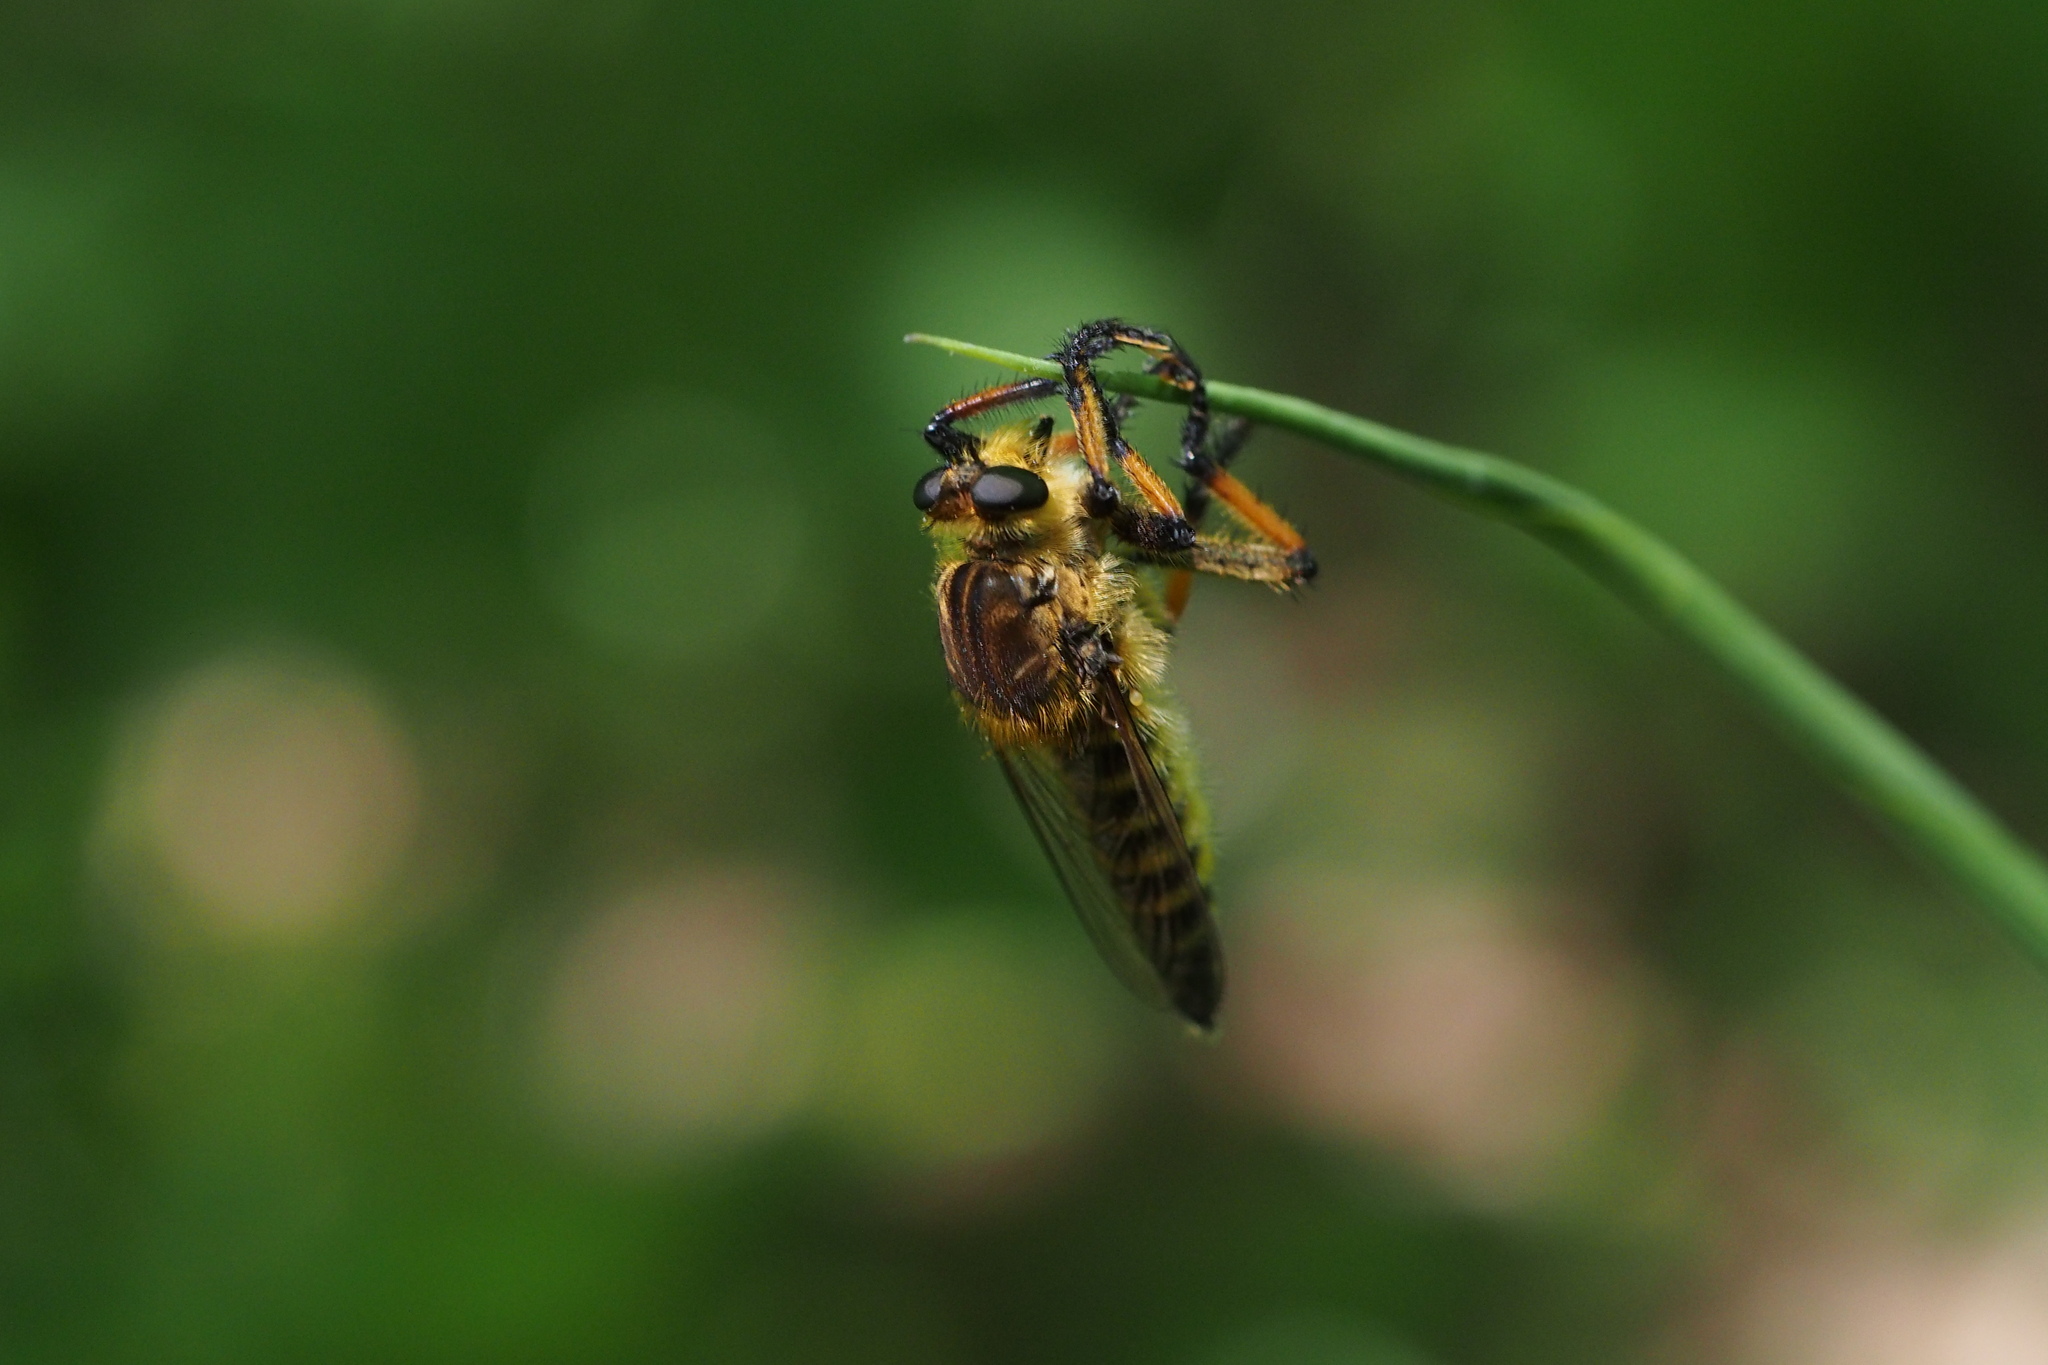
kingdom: Animalia
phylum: Arthropoda
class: Insecta
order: Diptera
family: Asilidae
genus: Promachus
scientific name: Promachus yesonicus
